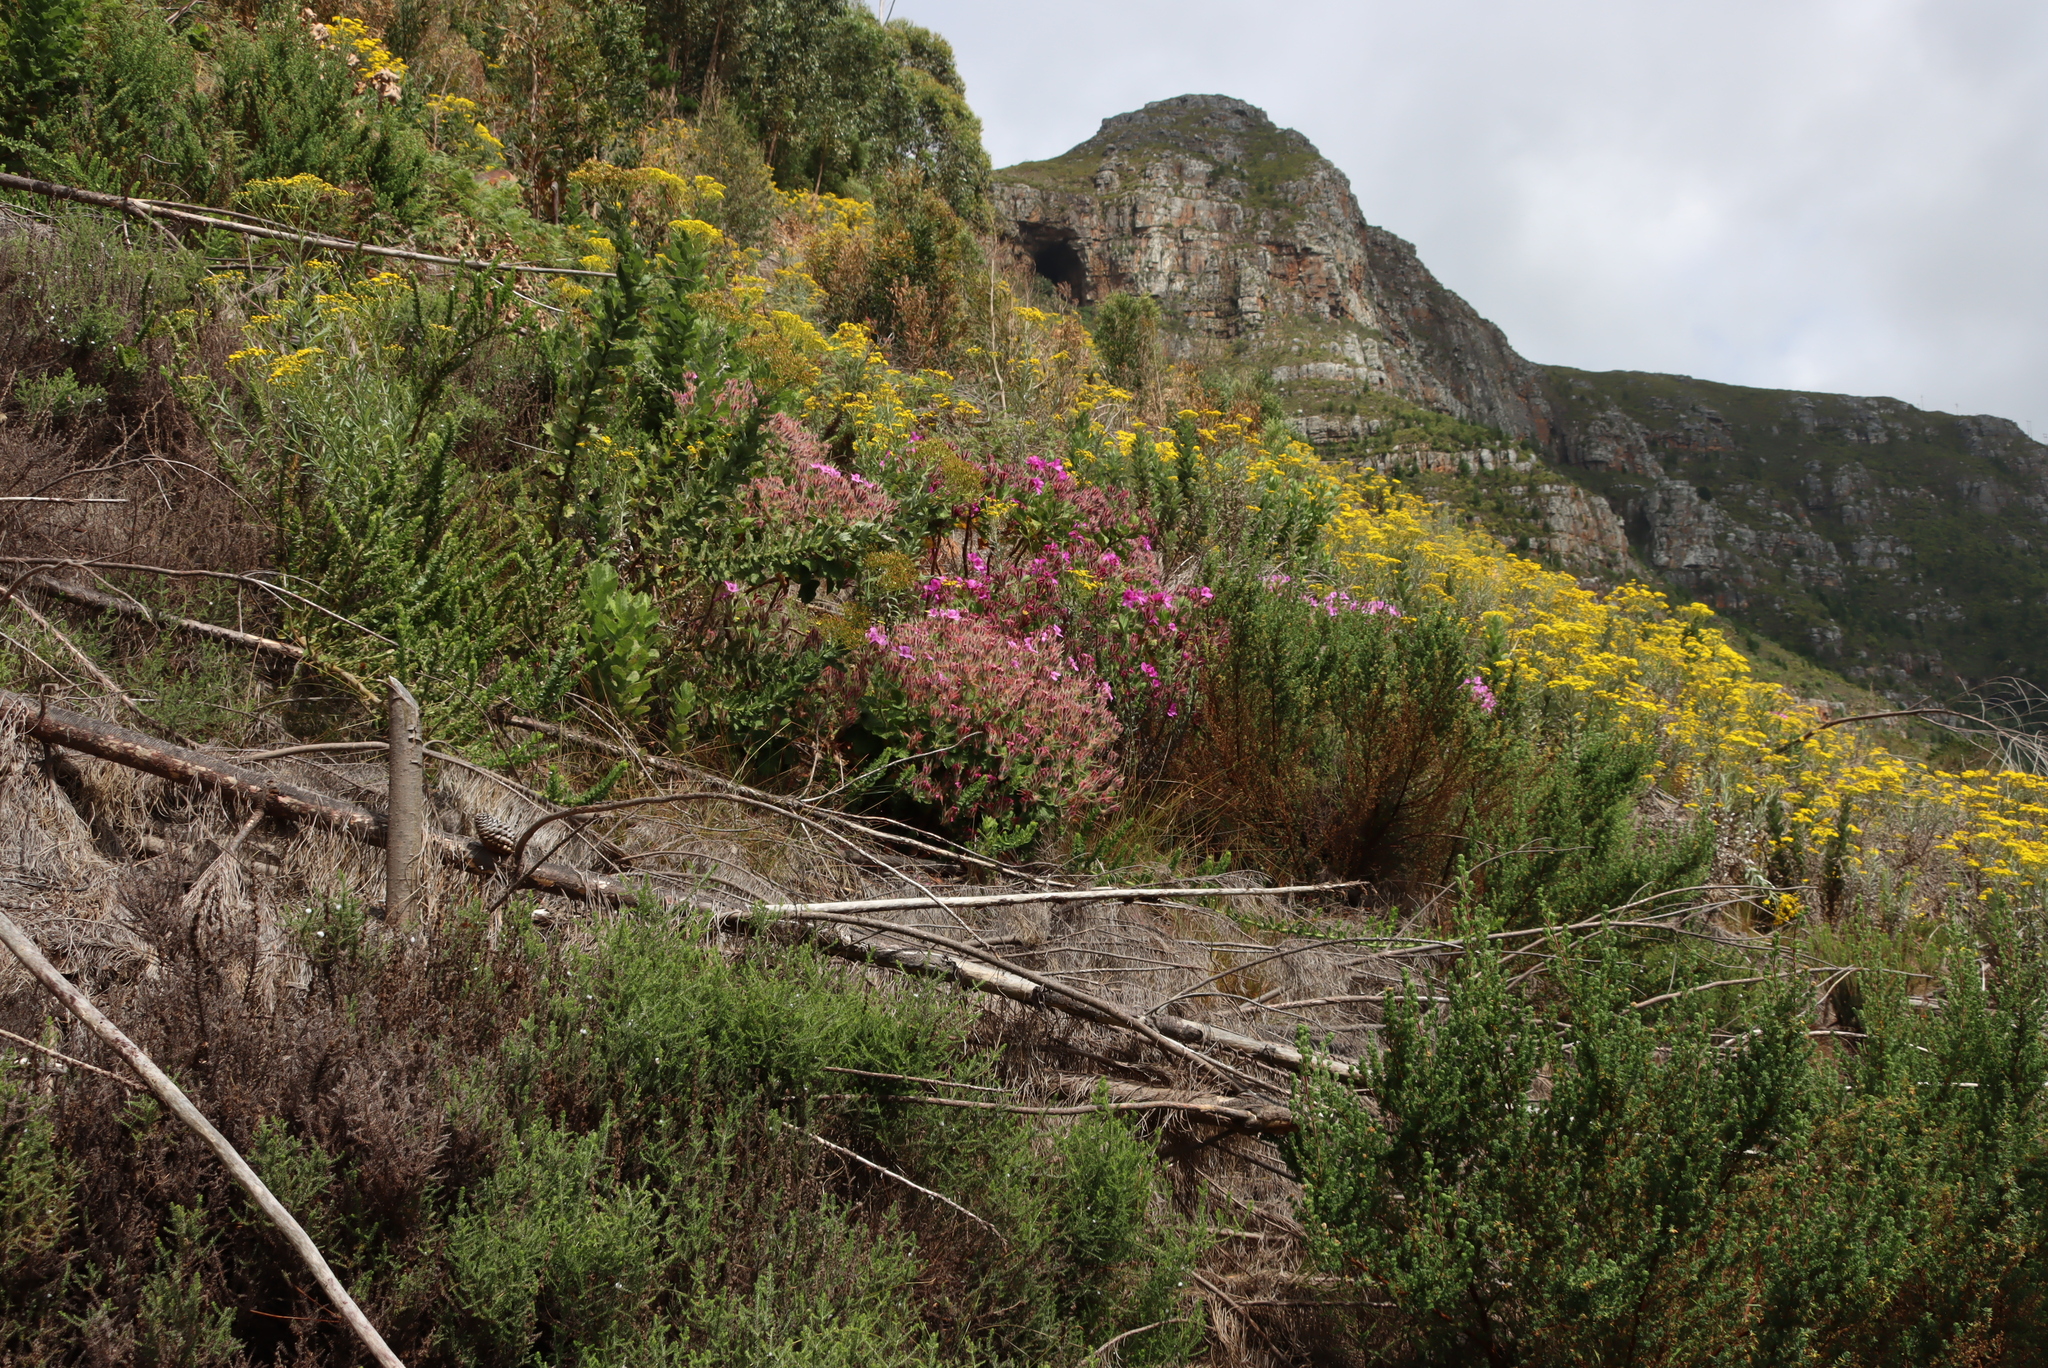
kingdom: Plantae
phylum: Tracheophyta
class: Magnoliopsida
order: Geraniales
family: Geraniaceae
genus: Pelargonium
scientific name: Pelargonium cucullatum
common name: Tree pelargonium
